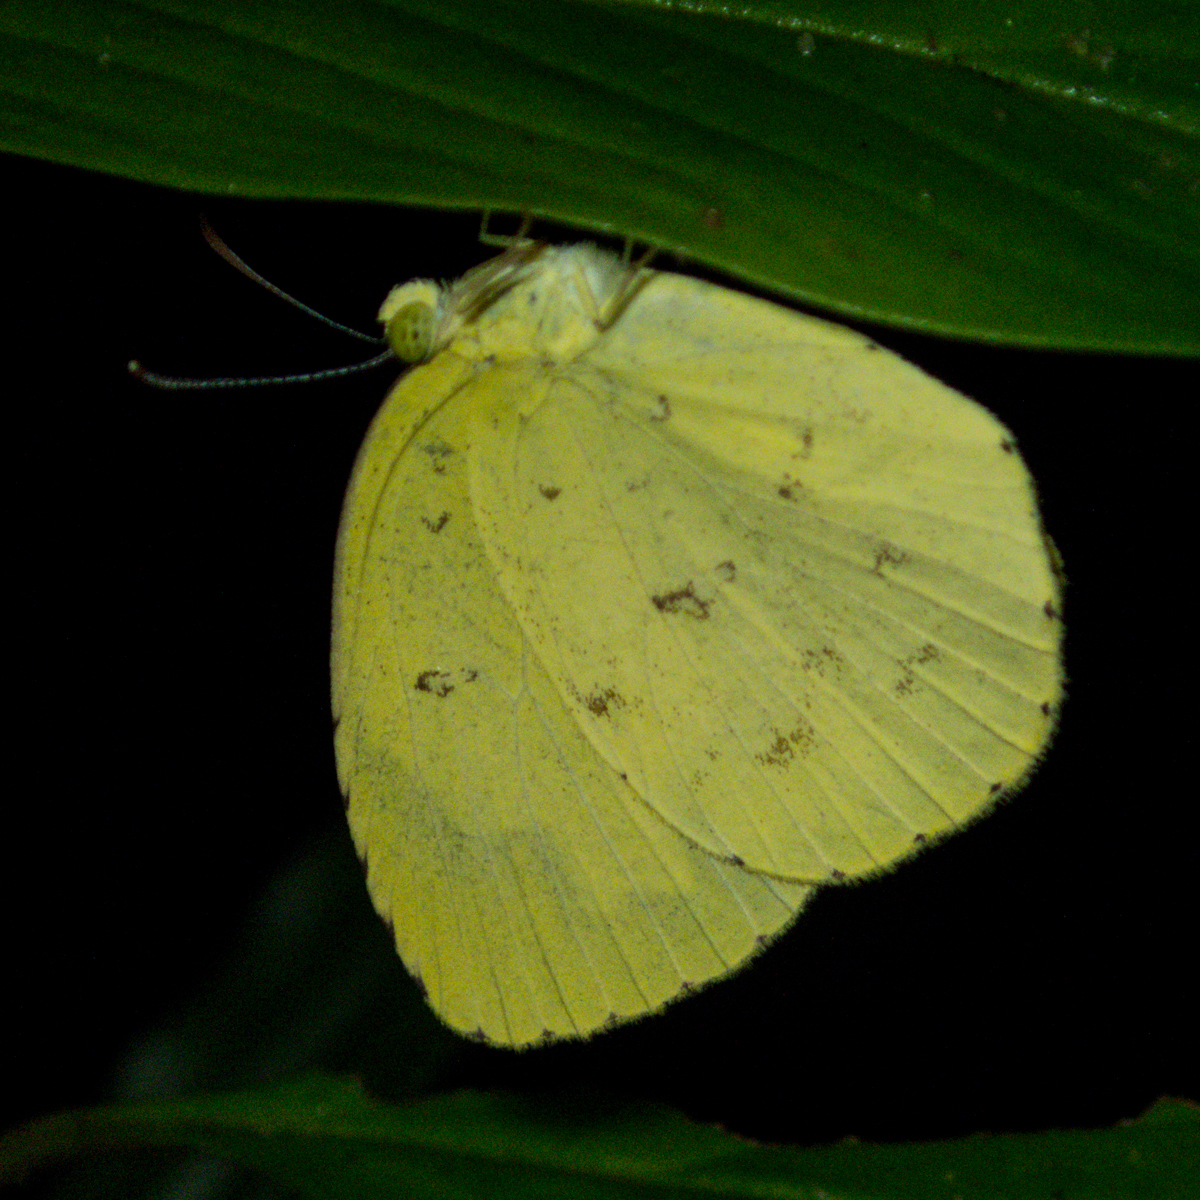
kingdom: Animalia
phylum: Arthropoda
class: Insecta
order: Lepidoptera
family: Pieridae
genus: Eurema
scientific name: Eurema hecabe
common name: Pale grass yellow
